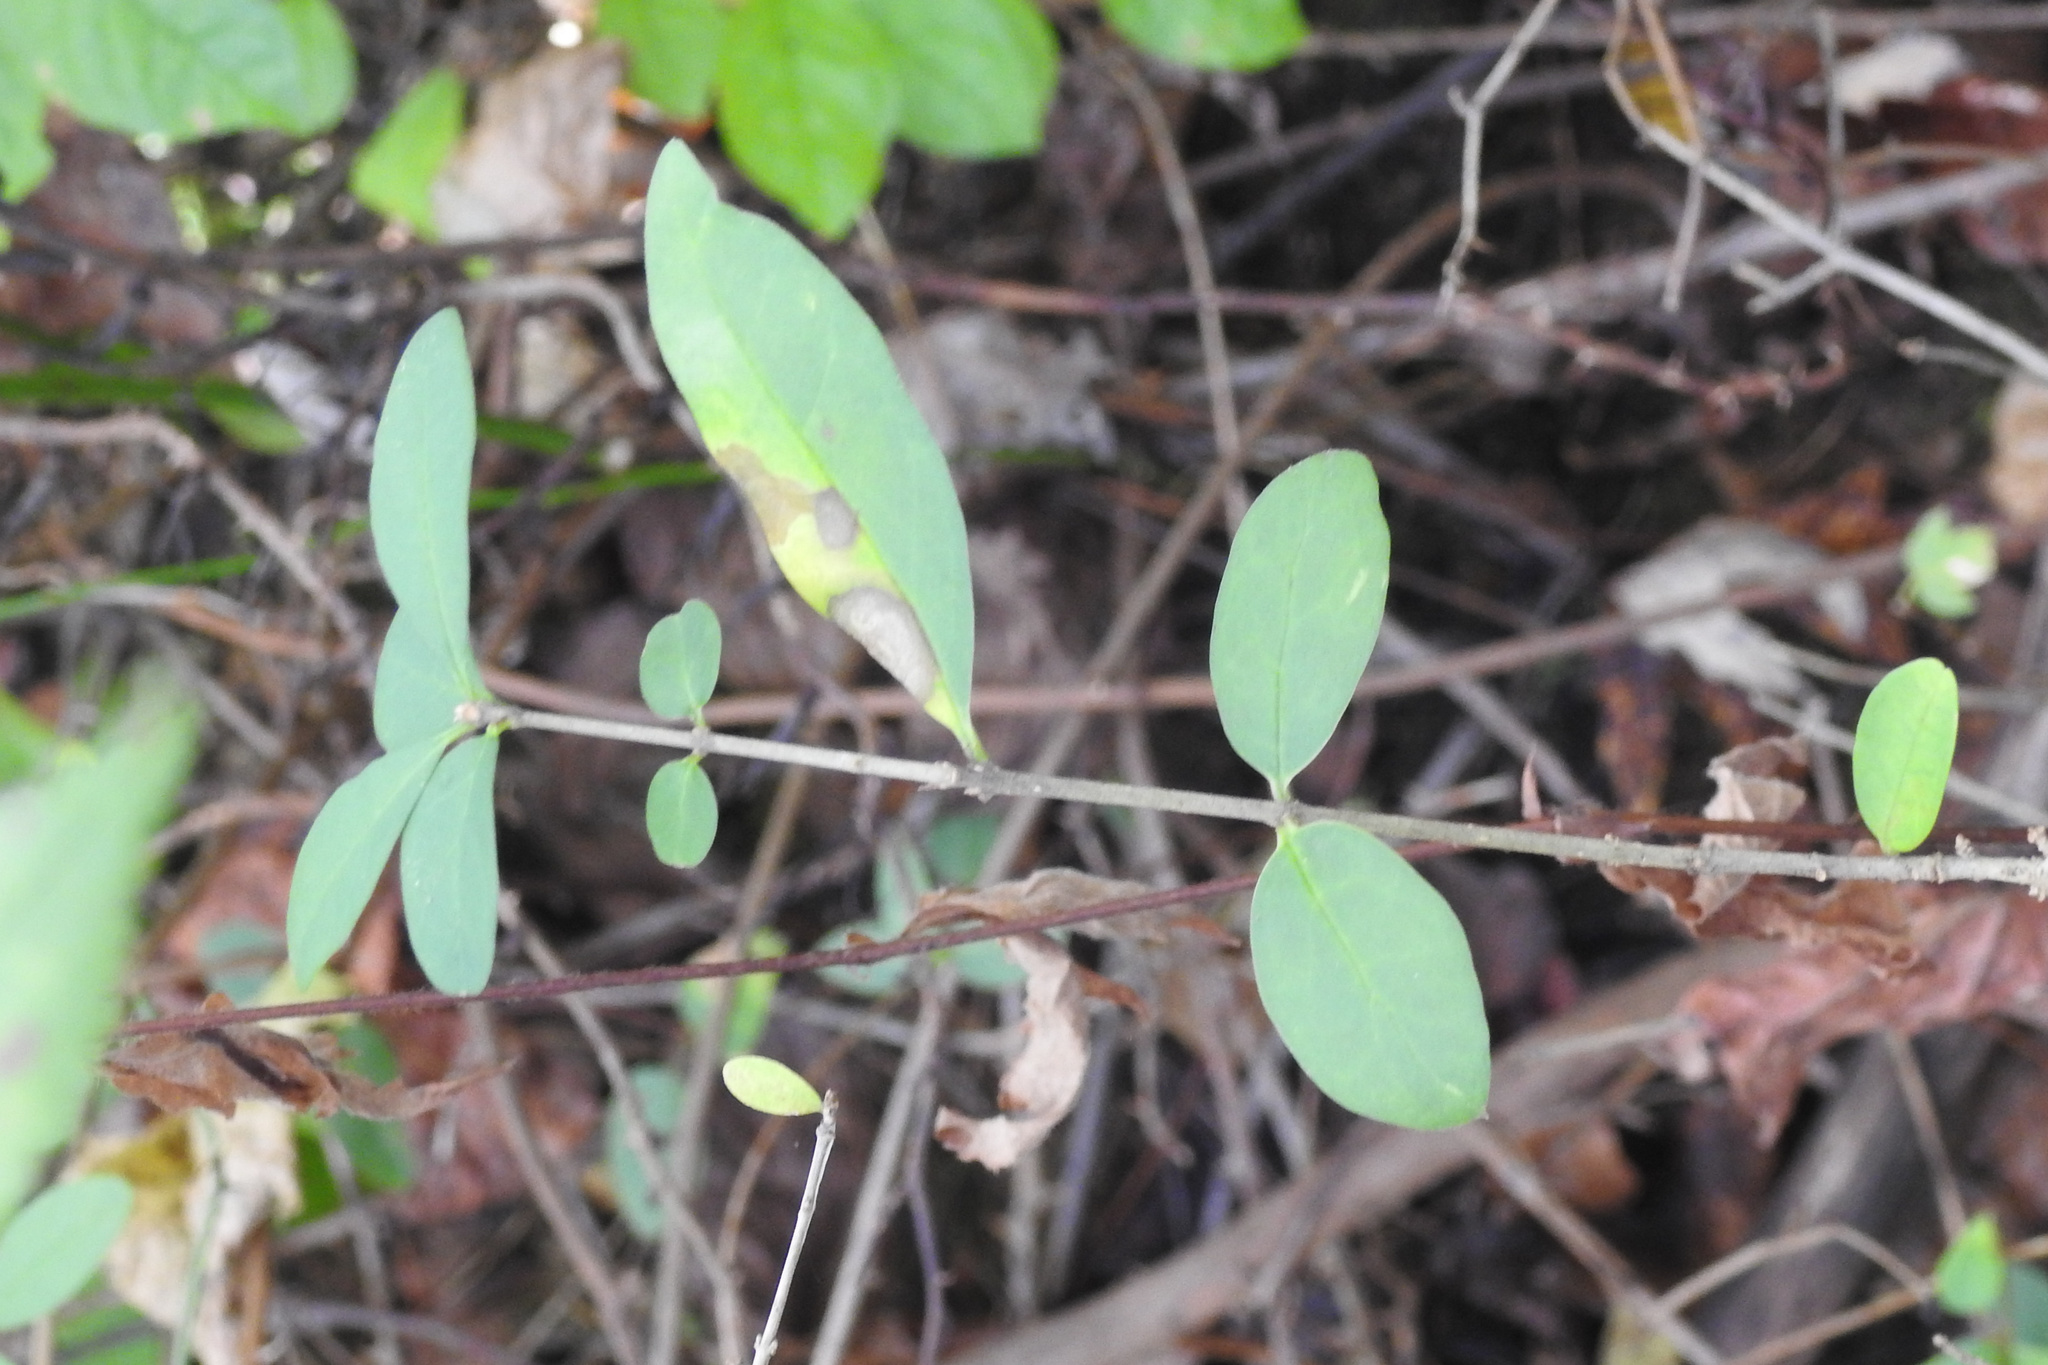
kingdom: Plantae
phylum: Tracheophyta
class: Magnoliopsida
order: Lamiales
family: Oleaceae
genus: Ligustrum
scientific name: Ligustrum
